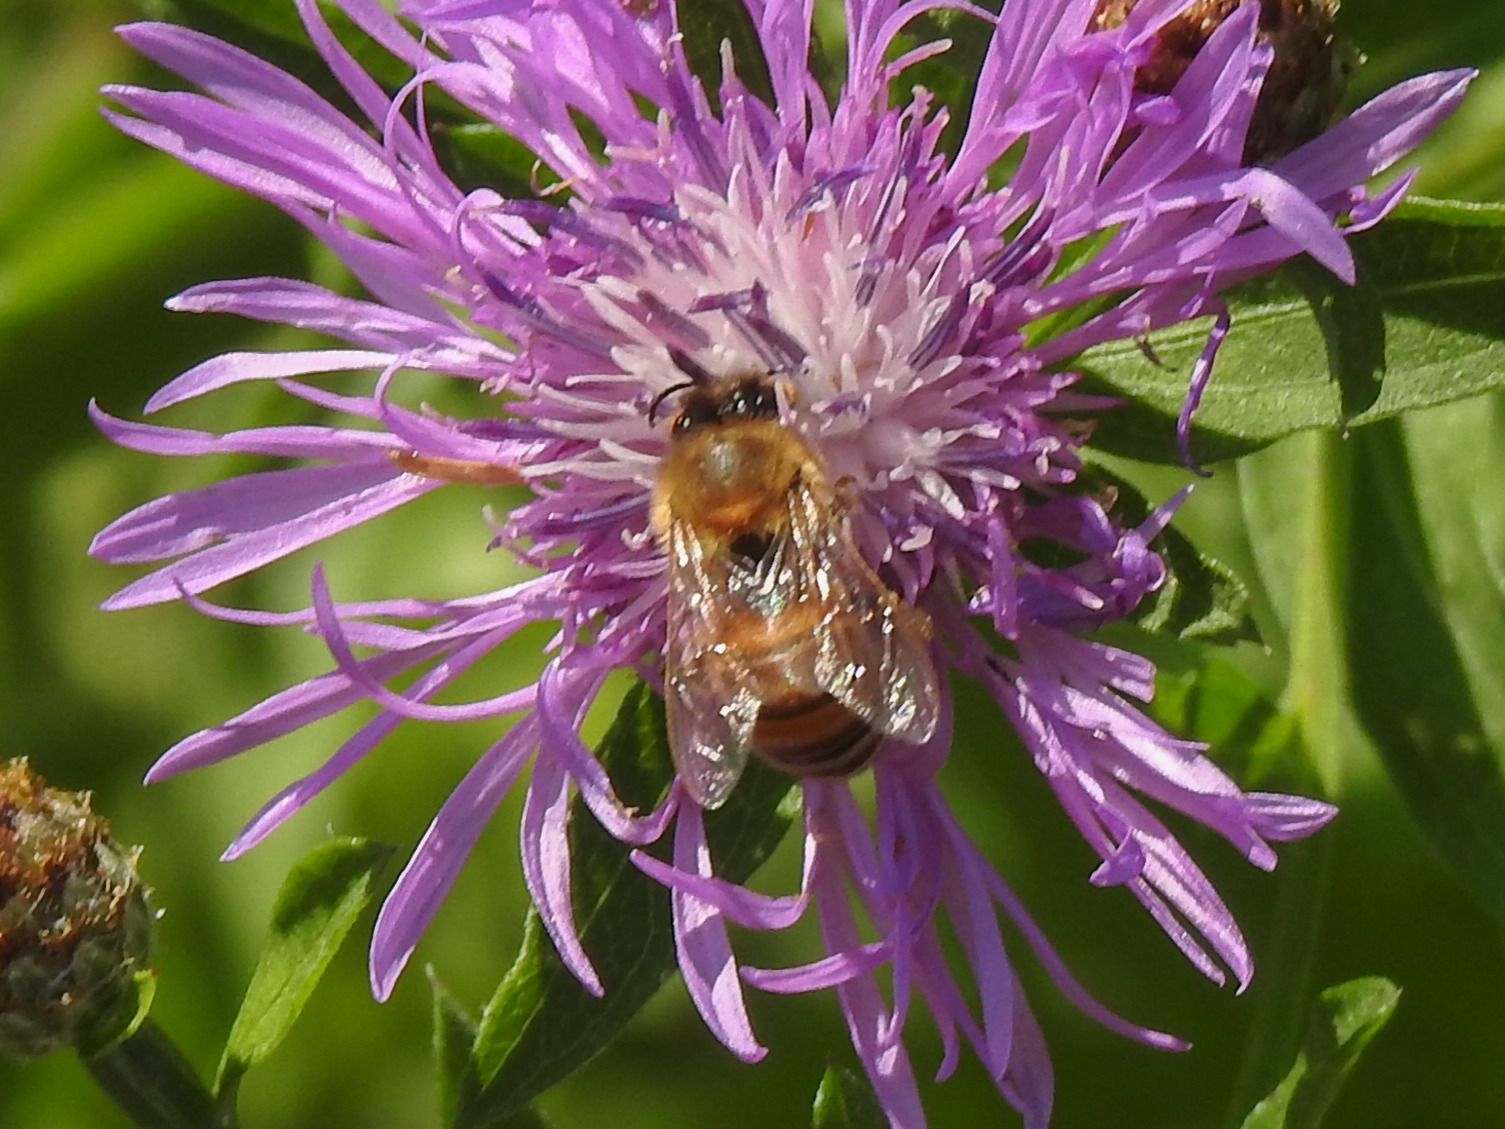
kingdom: Animalia
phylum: Arthropoda
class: Insecta
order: Hymenoptera
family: Apidae
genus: Apis
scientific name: Apis mellifera
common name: Honey bee
